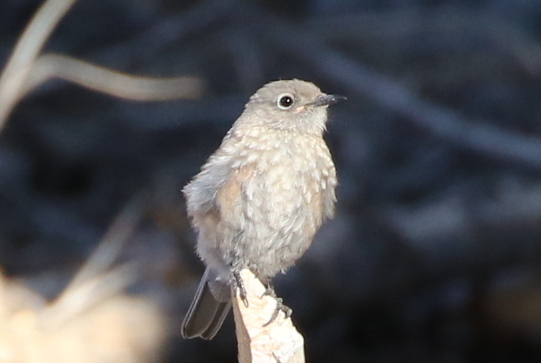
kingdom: Animalia
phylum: Chordata
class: Aves
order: Passeriformes
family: Turdidae
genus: Sialia
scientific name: Sialia mexicana
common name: Western bluebird
